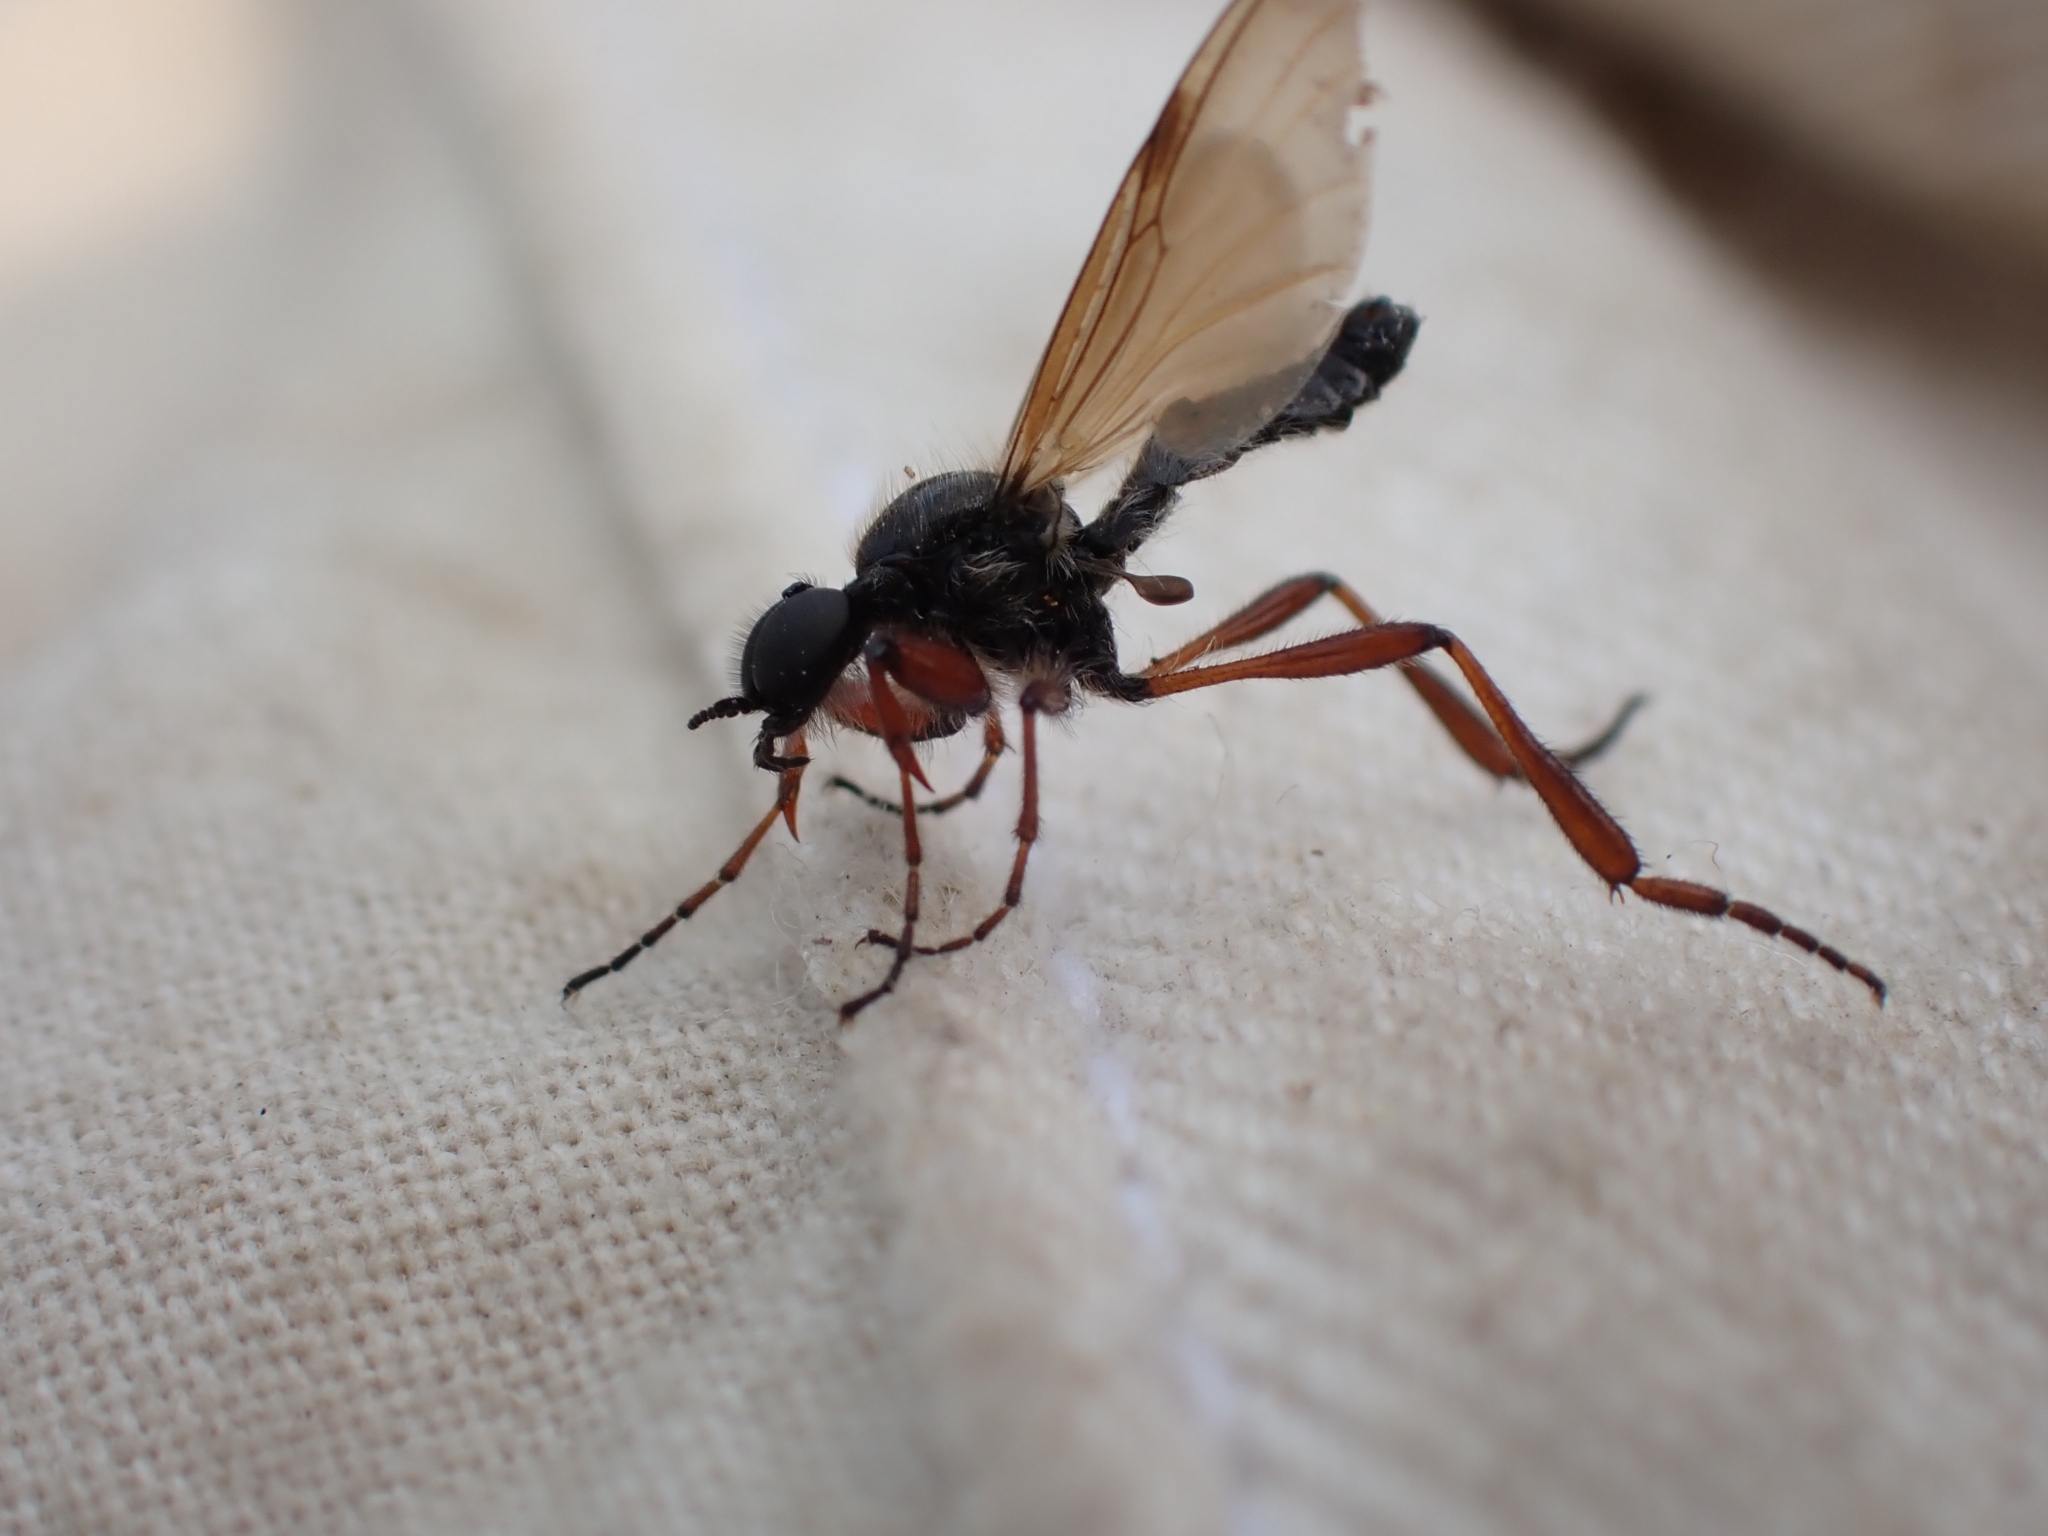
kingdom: Animalia
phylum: Arthropoda
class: Insecta
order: Diptera
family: Bibionidae
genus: Bibio
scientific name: Bibio brunnipes
